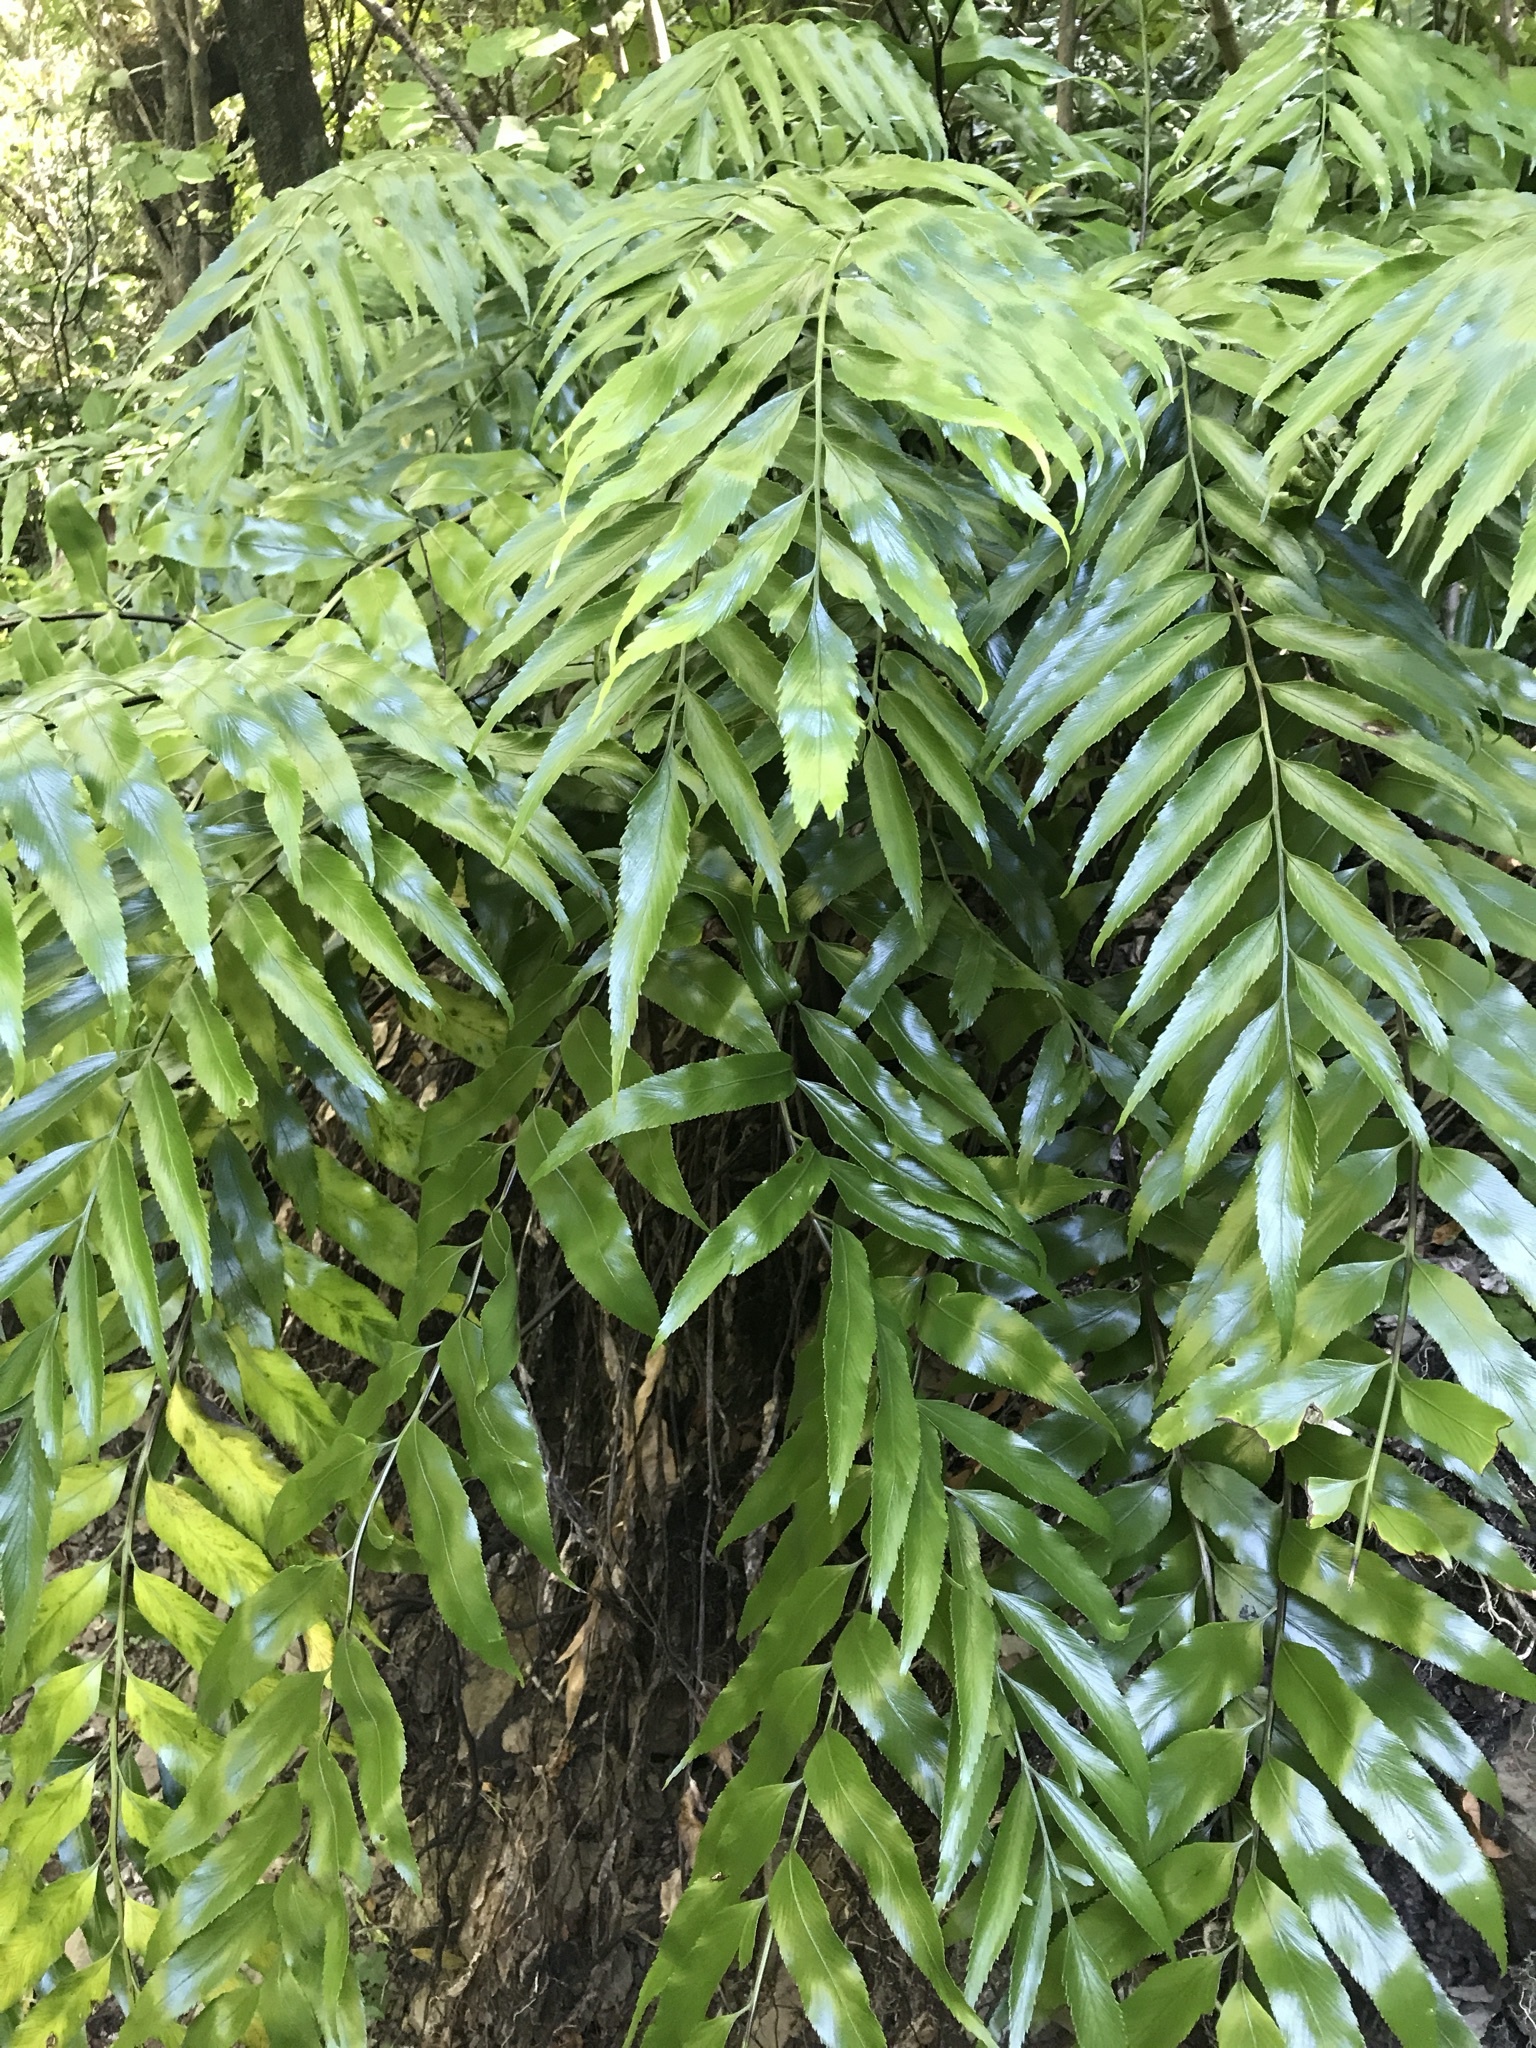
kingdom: Plantae
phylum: Tracheophyta
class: Polypodiopsida
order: Polypodiales
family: Aspleniaceae
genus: Asplenium
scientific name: Asplenium oblongifolium
